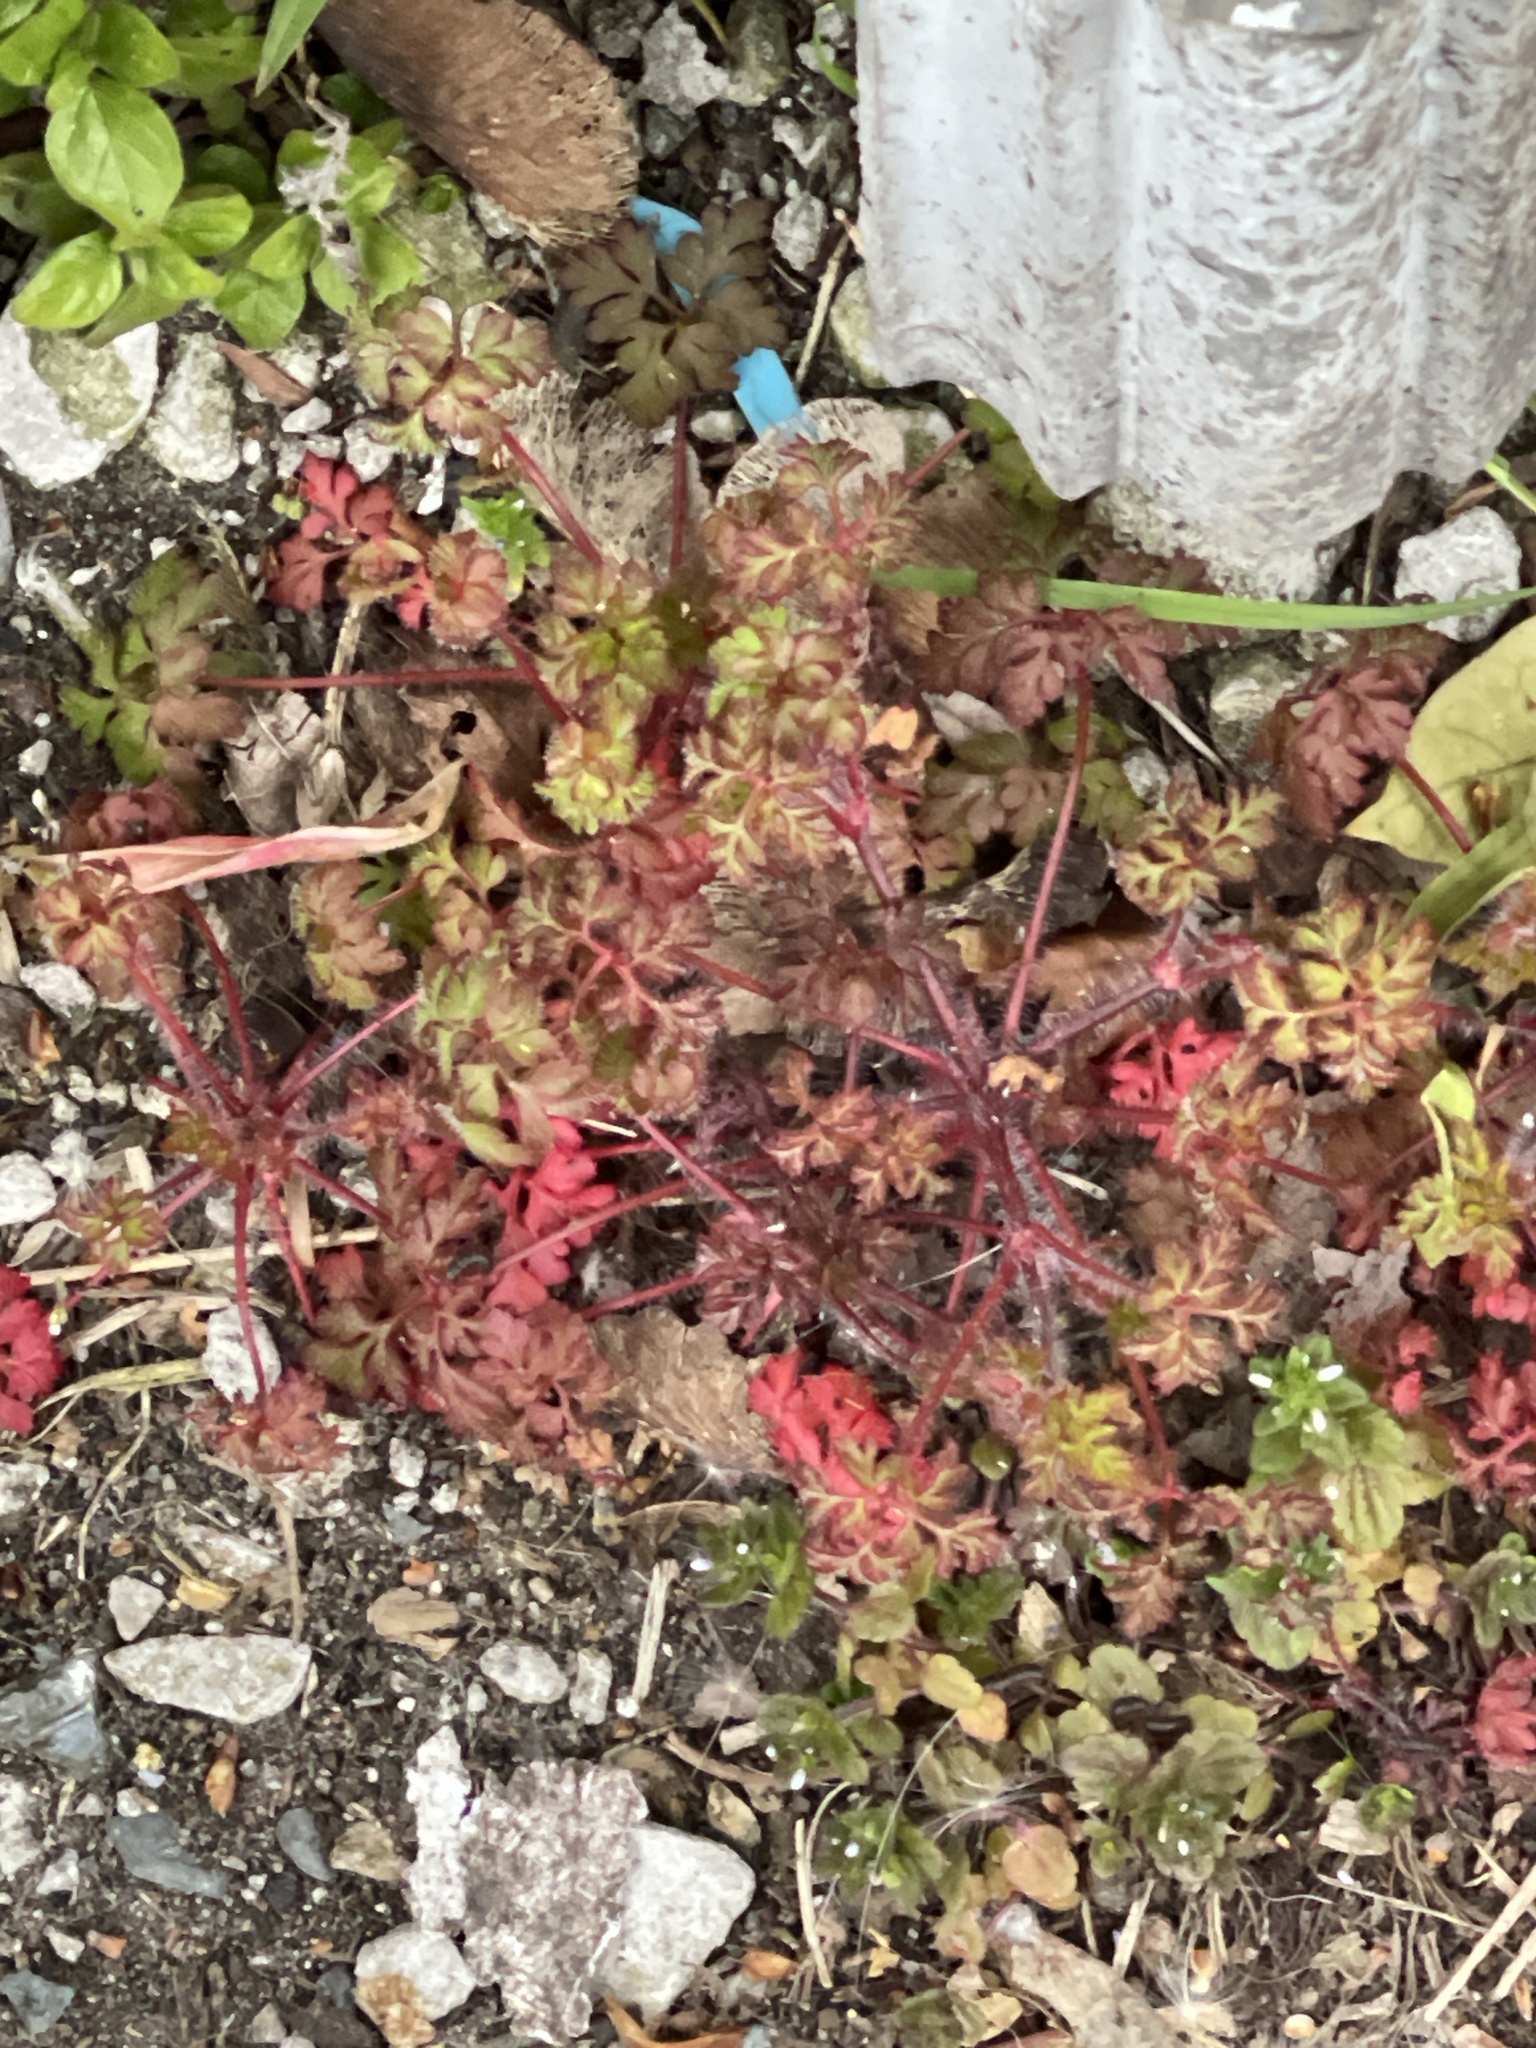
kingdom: Plantae
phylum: Tracheophyta
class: Magnoliopsida
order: Geraniales
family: Geraniaceae
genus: Geranium
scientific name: Geranium robertianum
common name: Herb-robert
